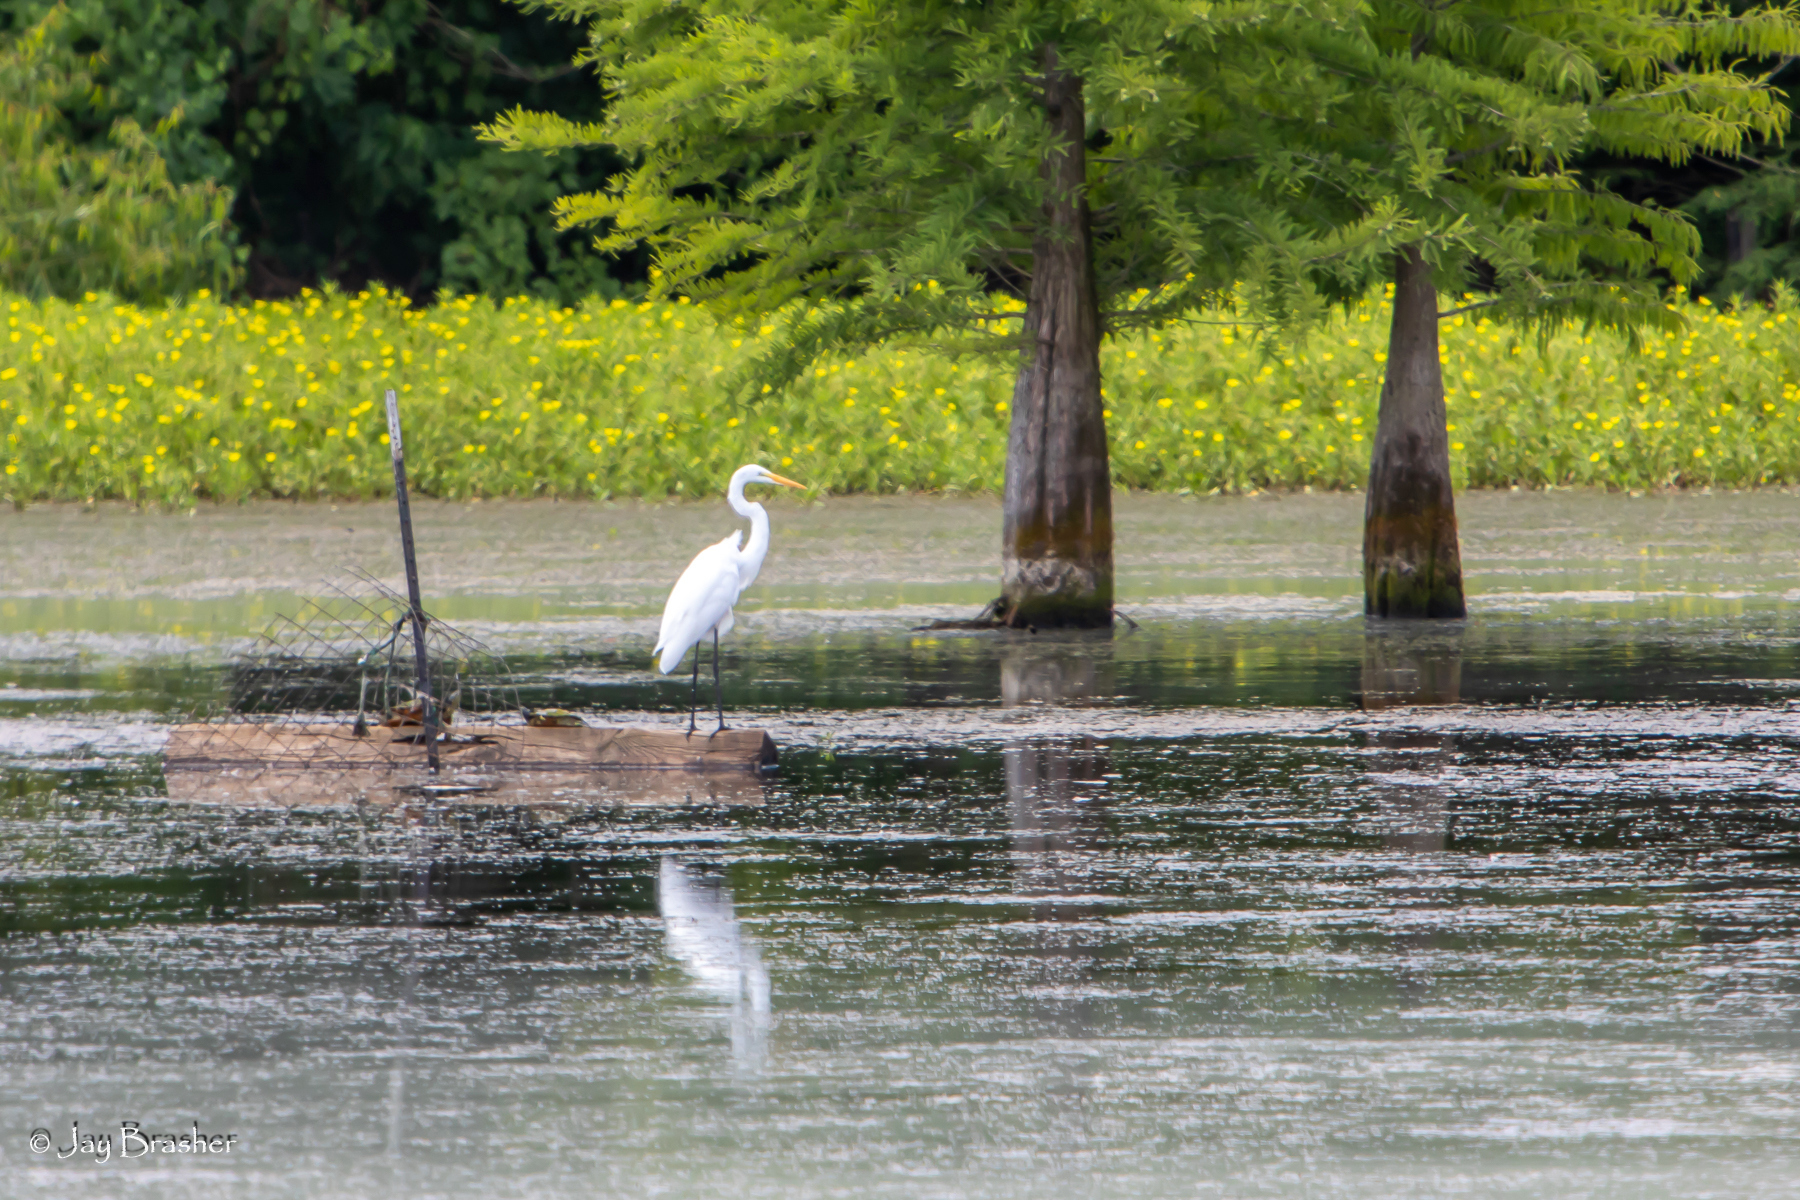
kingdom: Animalia
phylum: Chordata
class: Aves
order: Pelecaniformes
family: Ardeidae
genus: Ardea
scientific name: Ardea alba
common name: Great egret
